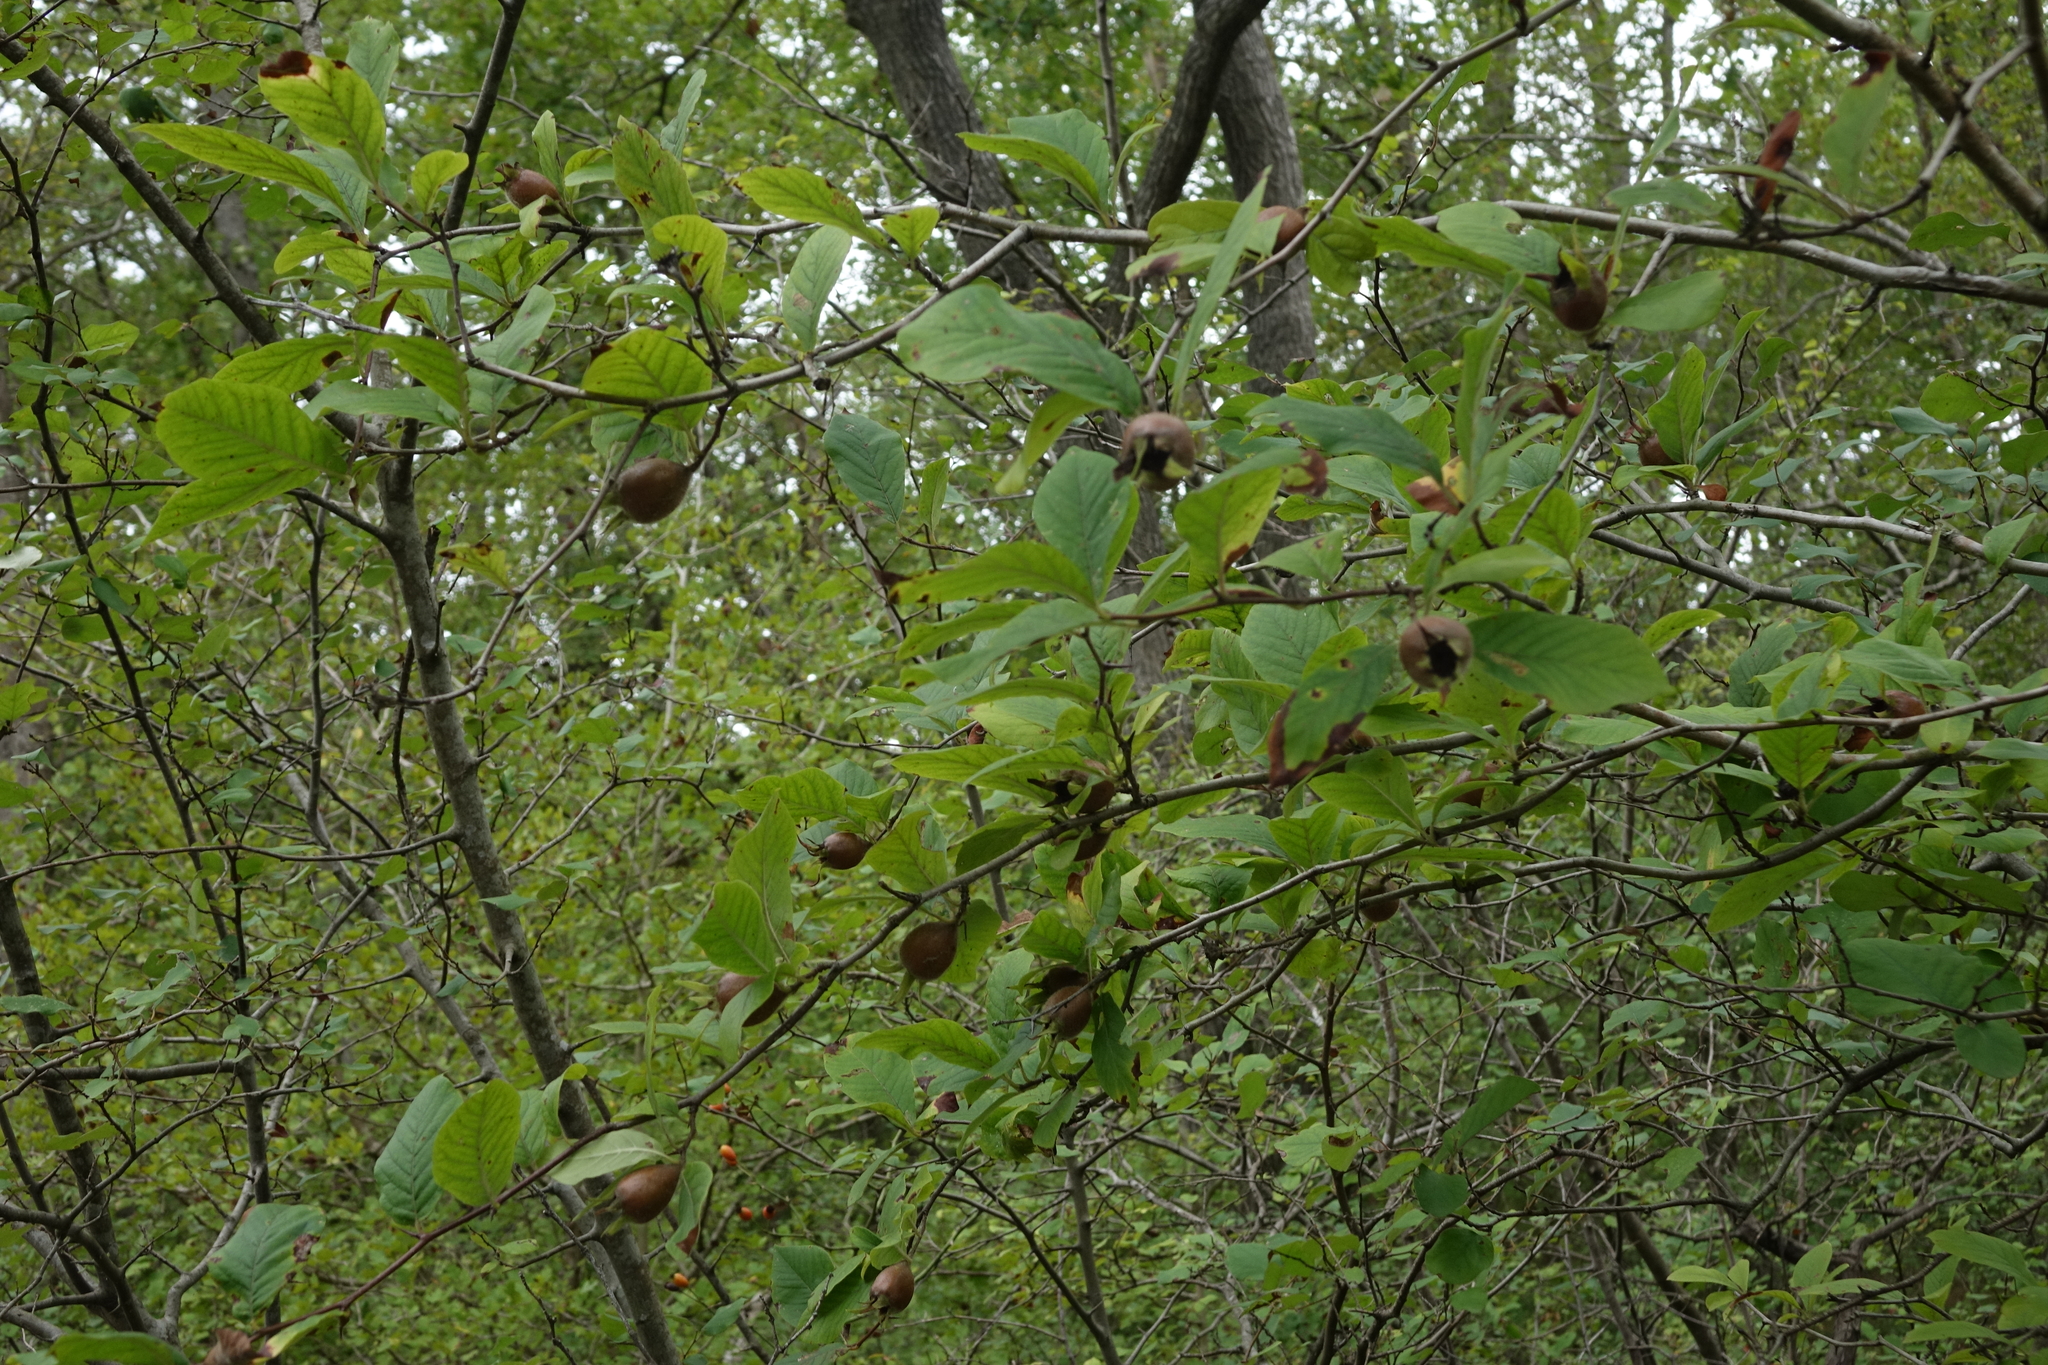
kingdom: Plantae
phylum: Tracheophyta
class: Magnoliopsida
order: Rosales
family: Rosaceae
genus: Mespilus
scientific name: Mespilus germanica
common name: Medlar
